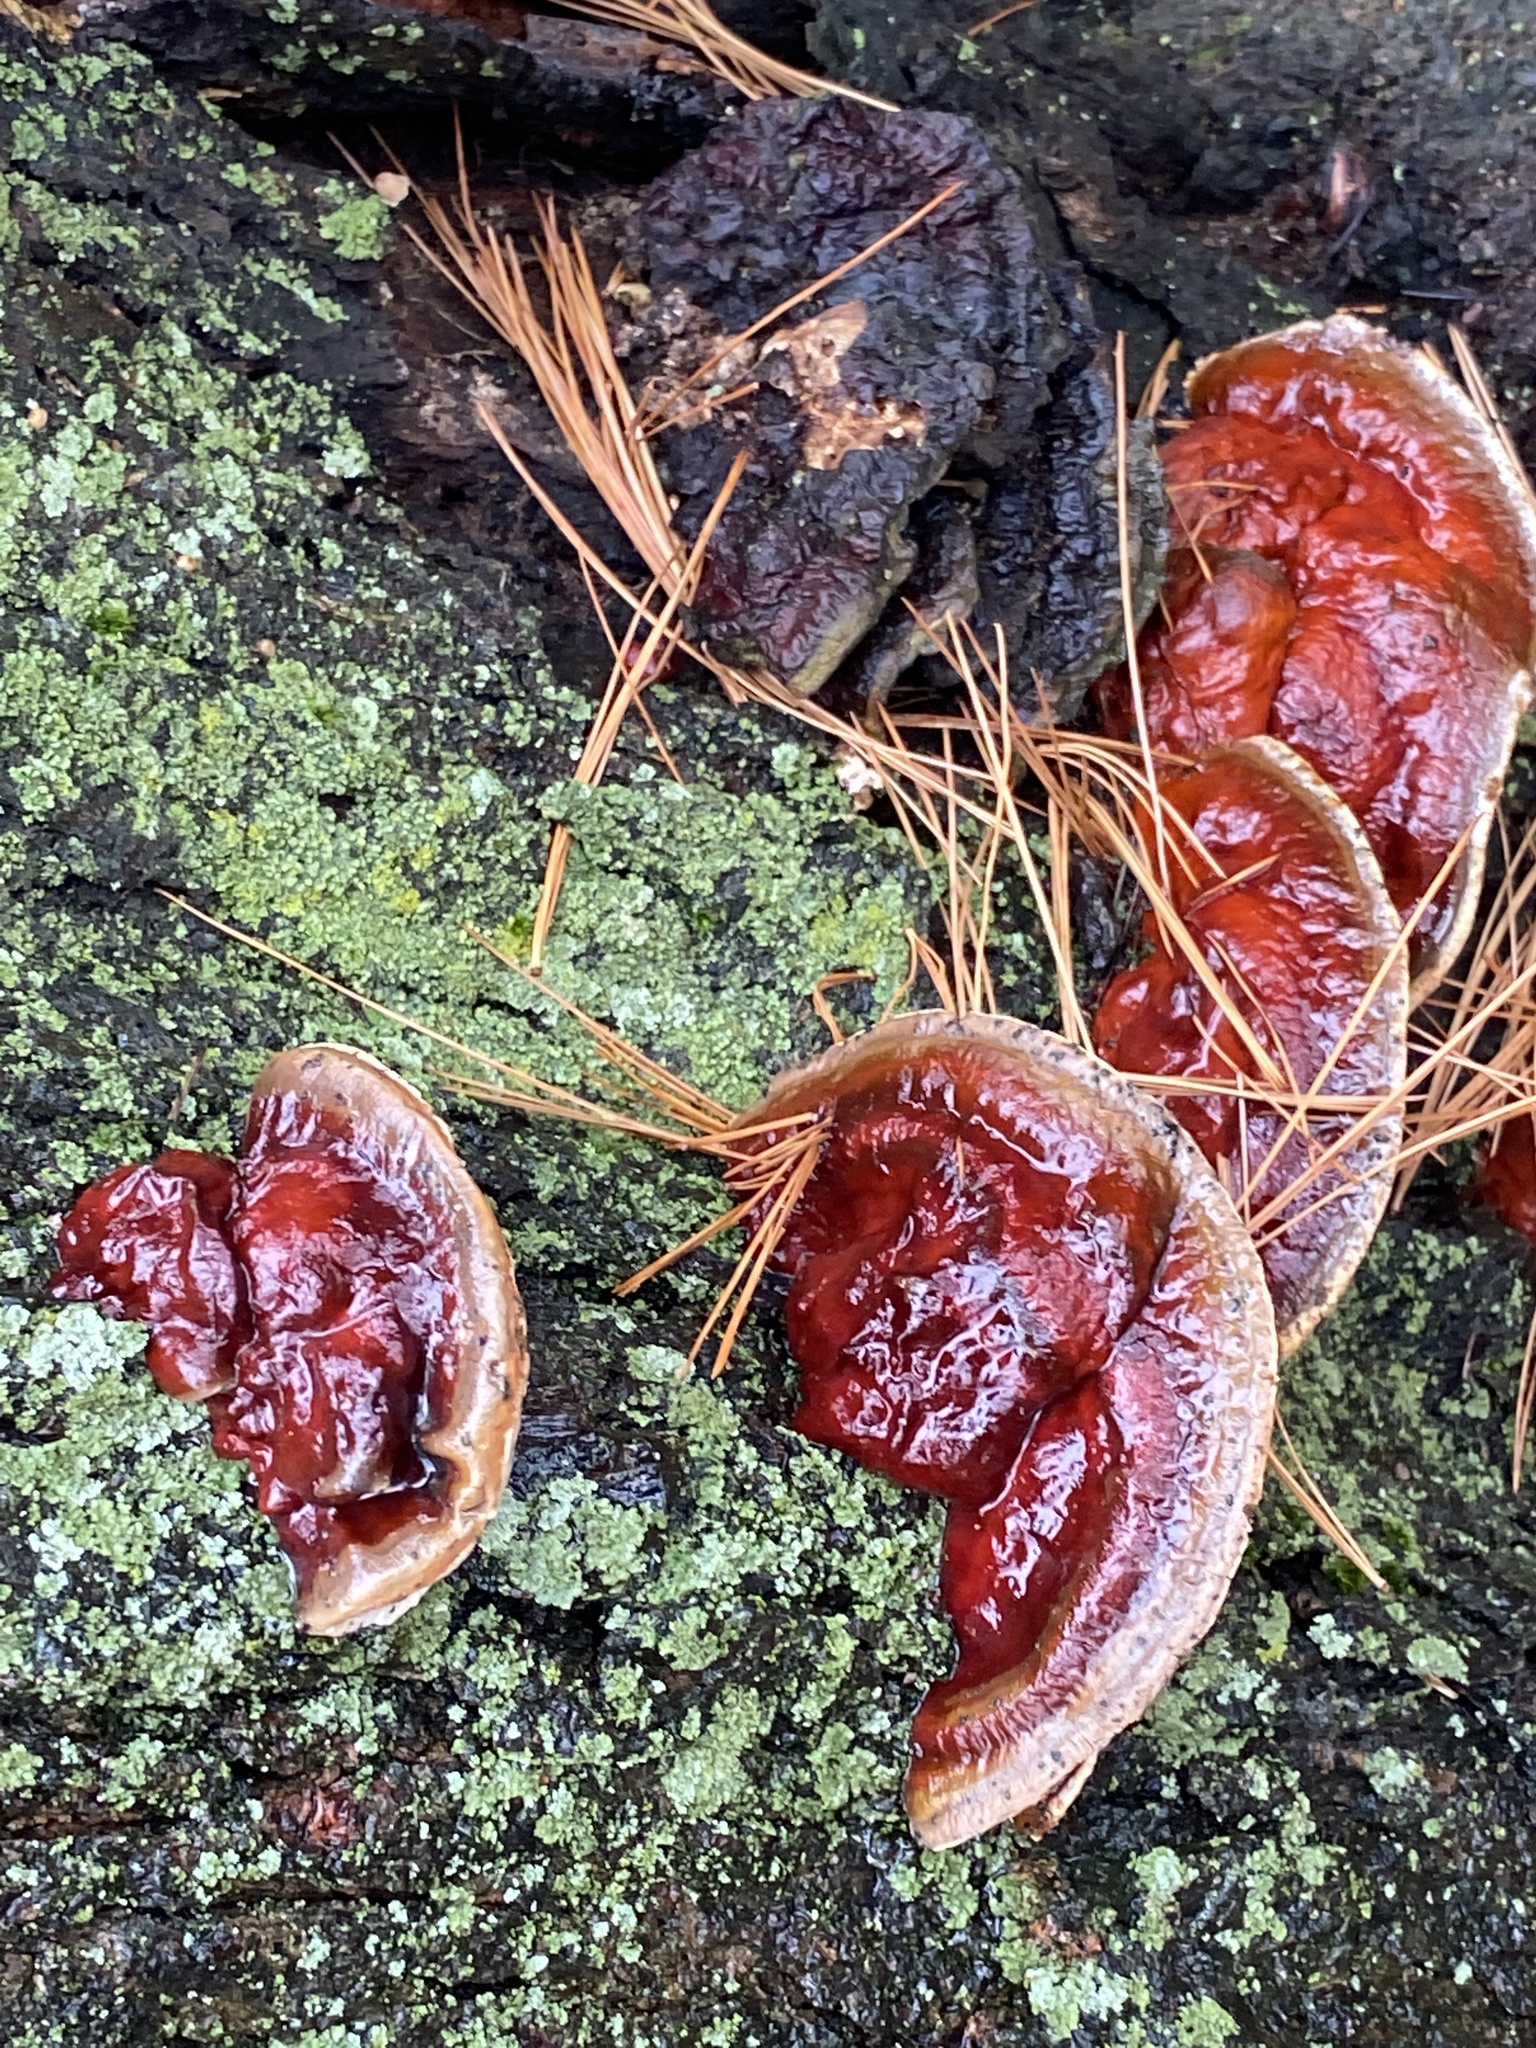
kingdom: Fungi
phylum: Basidiomycota
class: Agaricomycetes
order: Polyporales
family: Polyporaceae
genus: Ganoderma
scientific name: Ganoderma resinaceum
